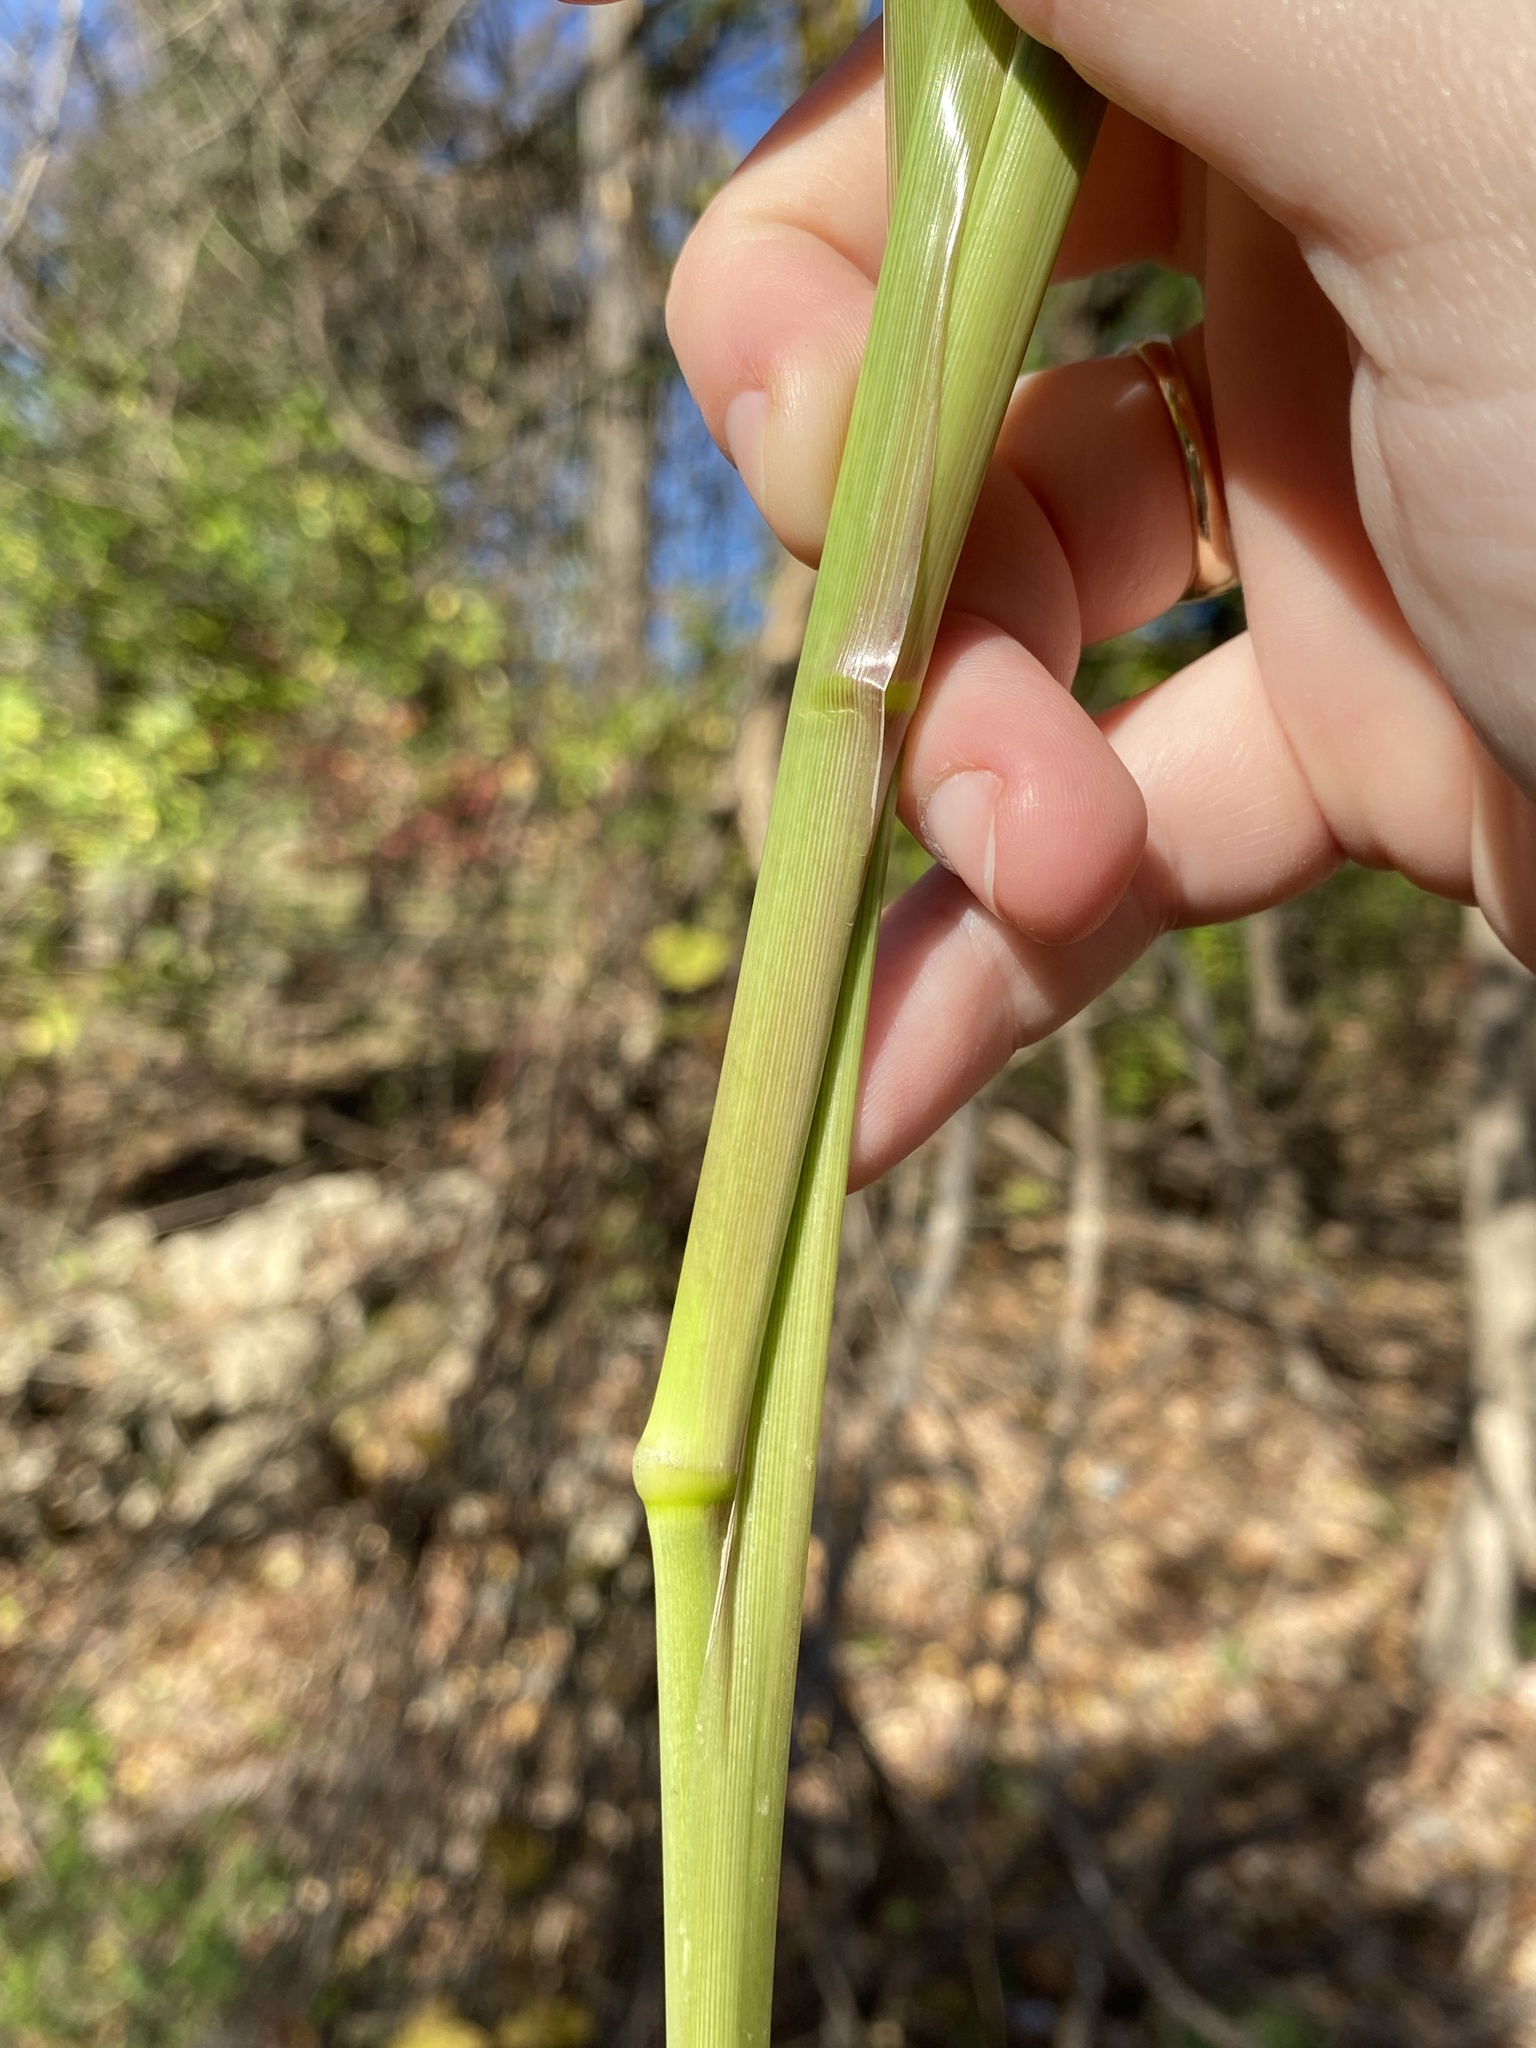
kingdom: Plantae
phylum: Tracheophyta
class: Liliopsida
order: Poales
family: Poaceae
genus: Cenchrus
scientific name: Cenchrus alopecuroides
